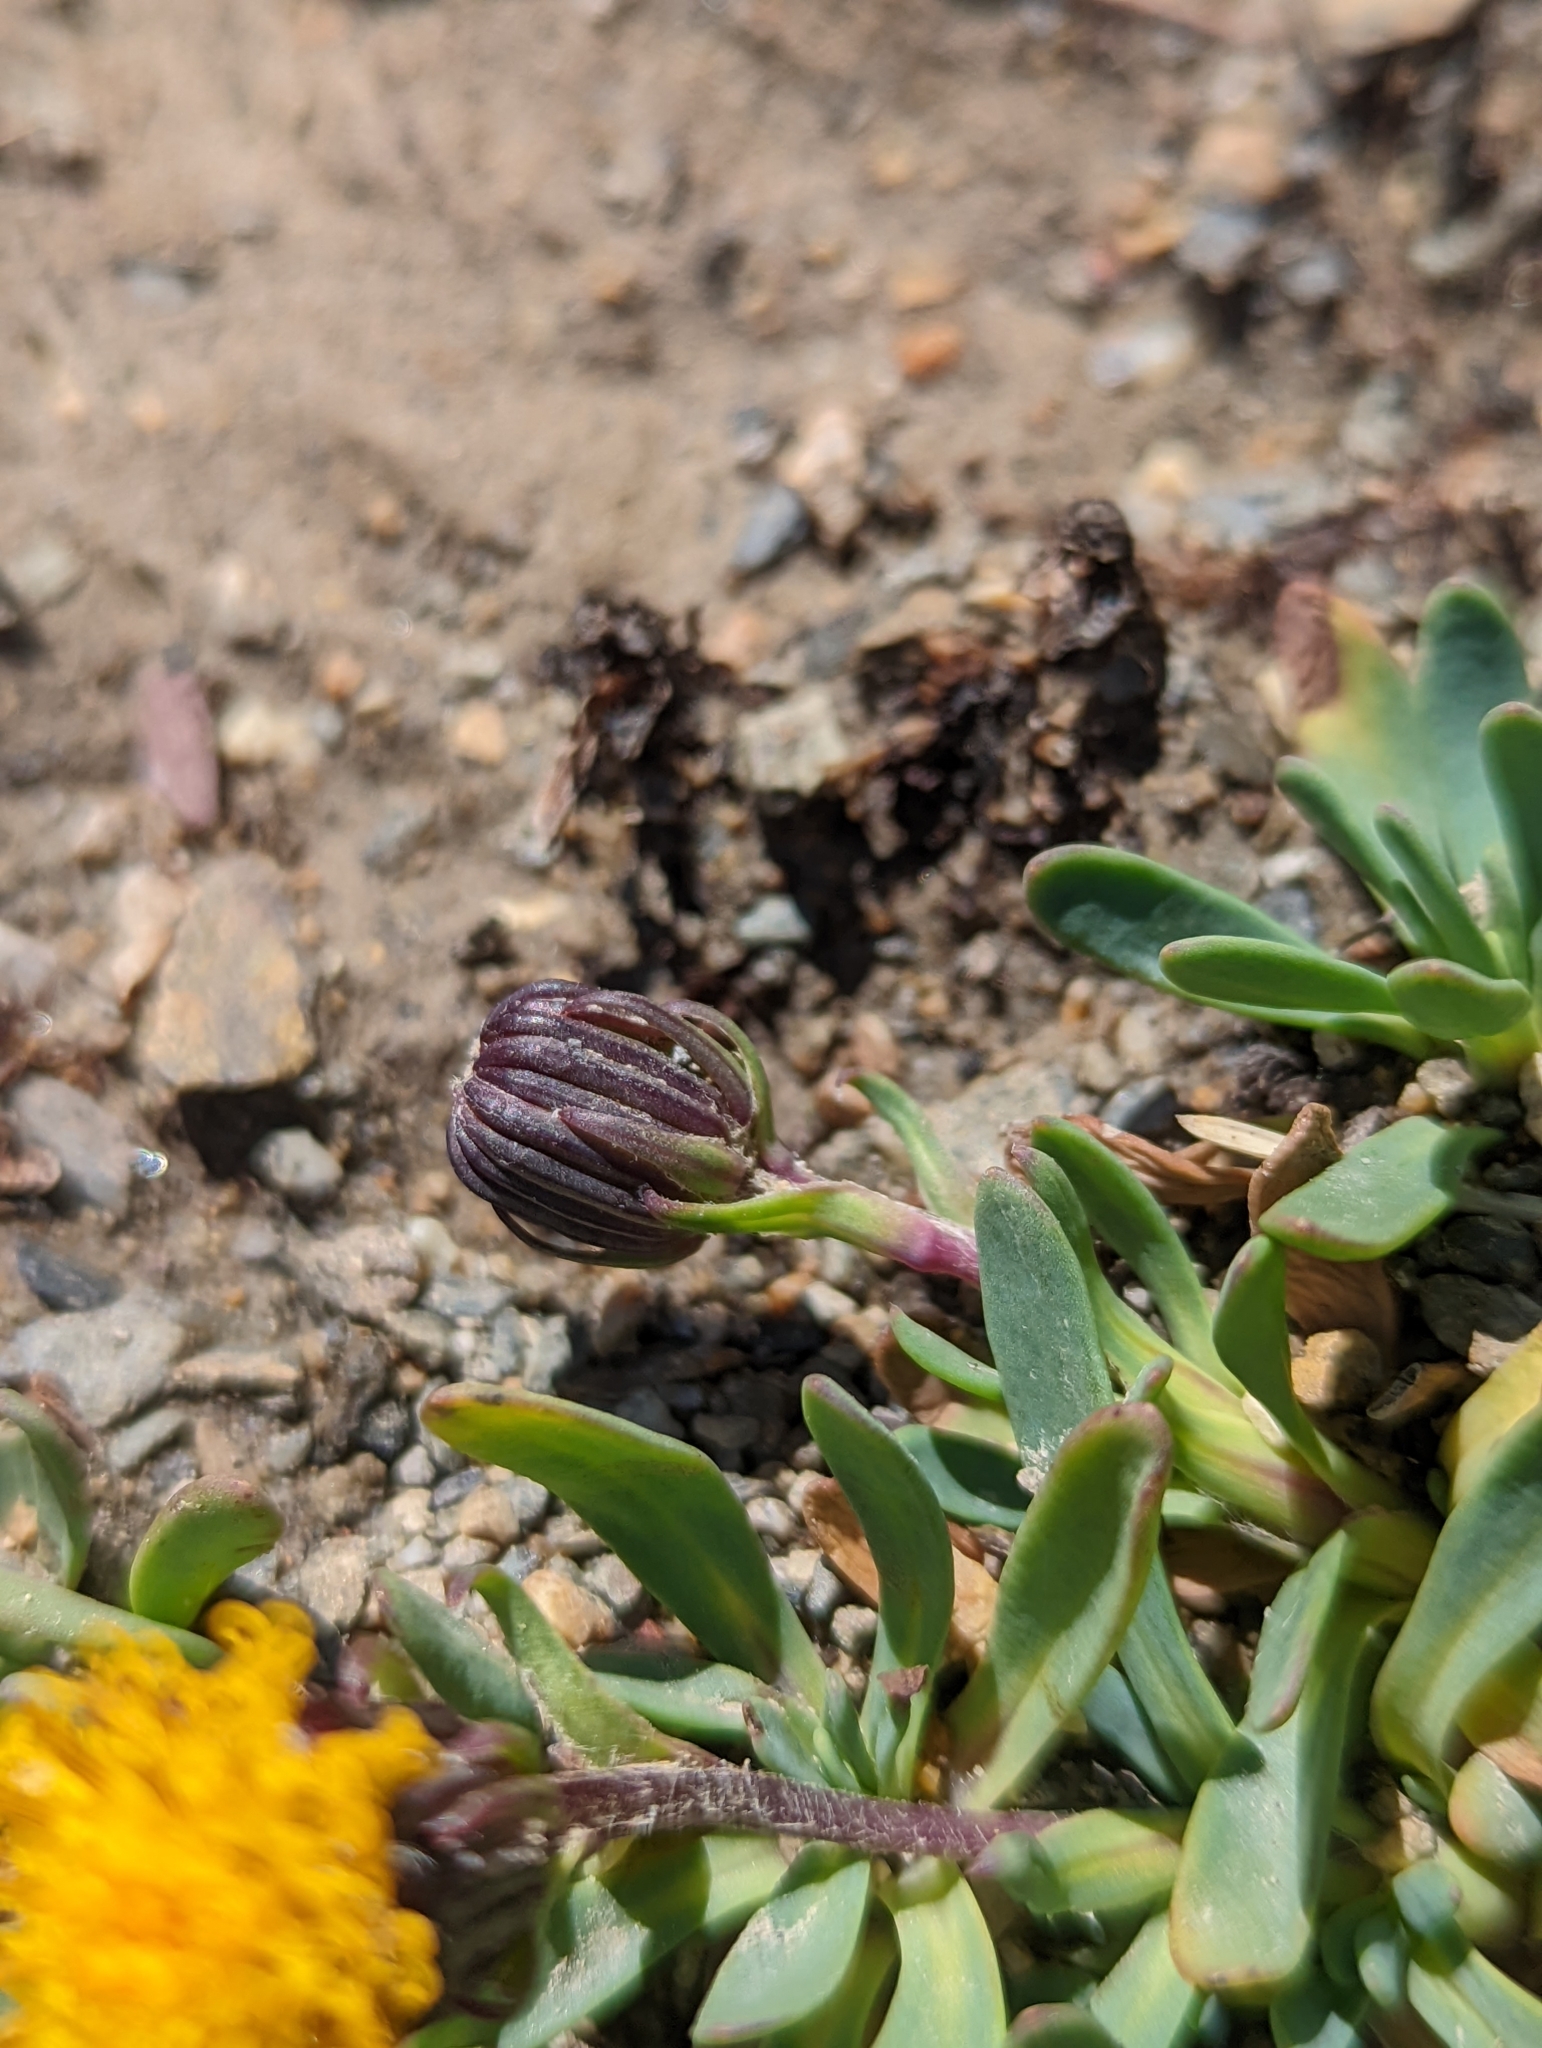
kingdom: Plantae
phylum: Tracheophyta
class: Magnoliopsida
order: Asterales
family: Asteraceae
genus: Senecio
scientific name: Senecio martinensis
